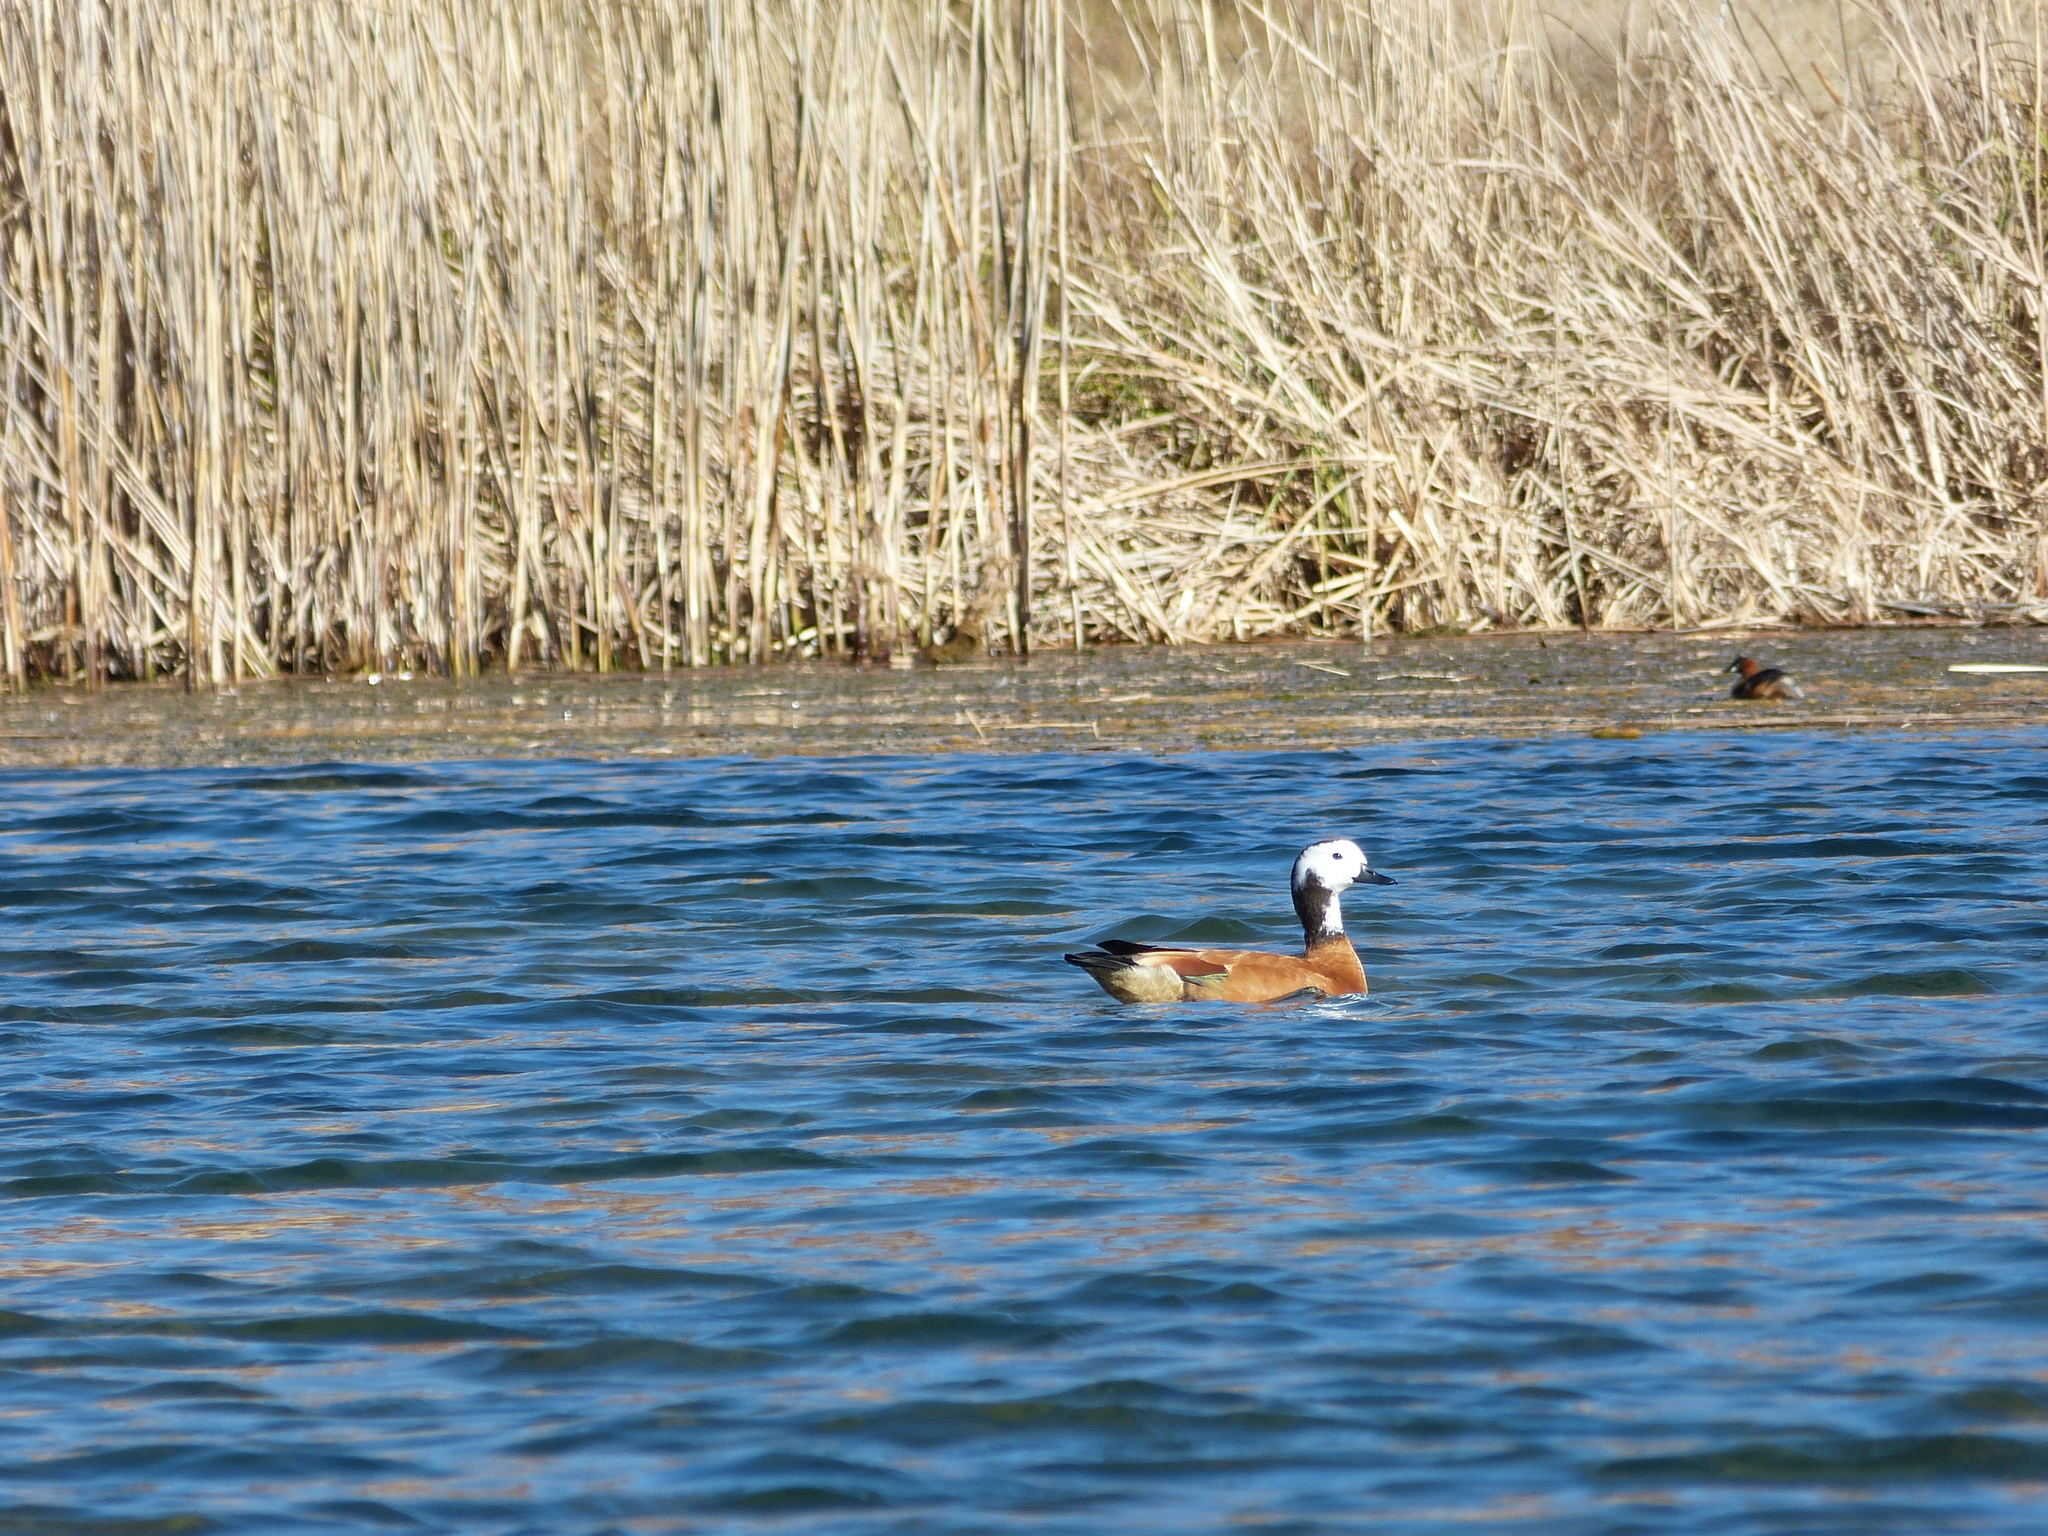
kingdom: Animalia
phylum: Chordata
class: Aves
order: Anseriformes
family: Anatidae
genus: Tadorna
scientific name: Tadorna cana
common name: South african shelduck
